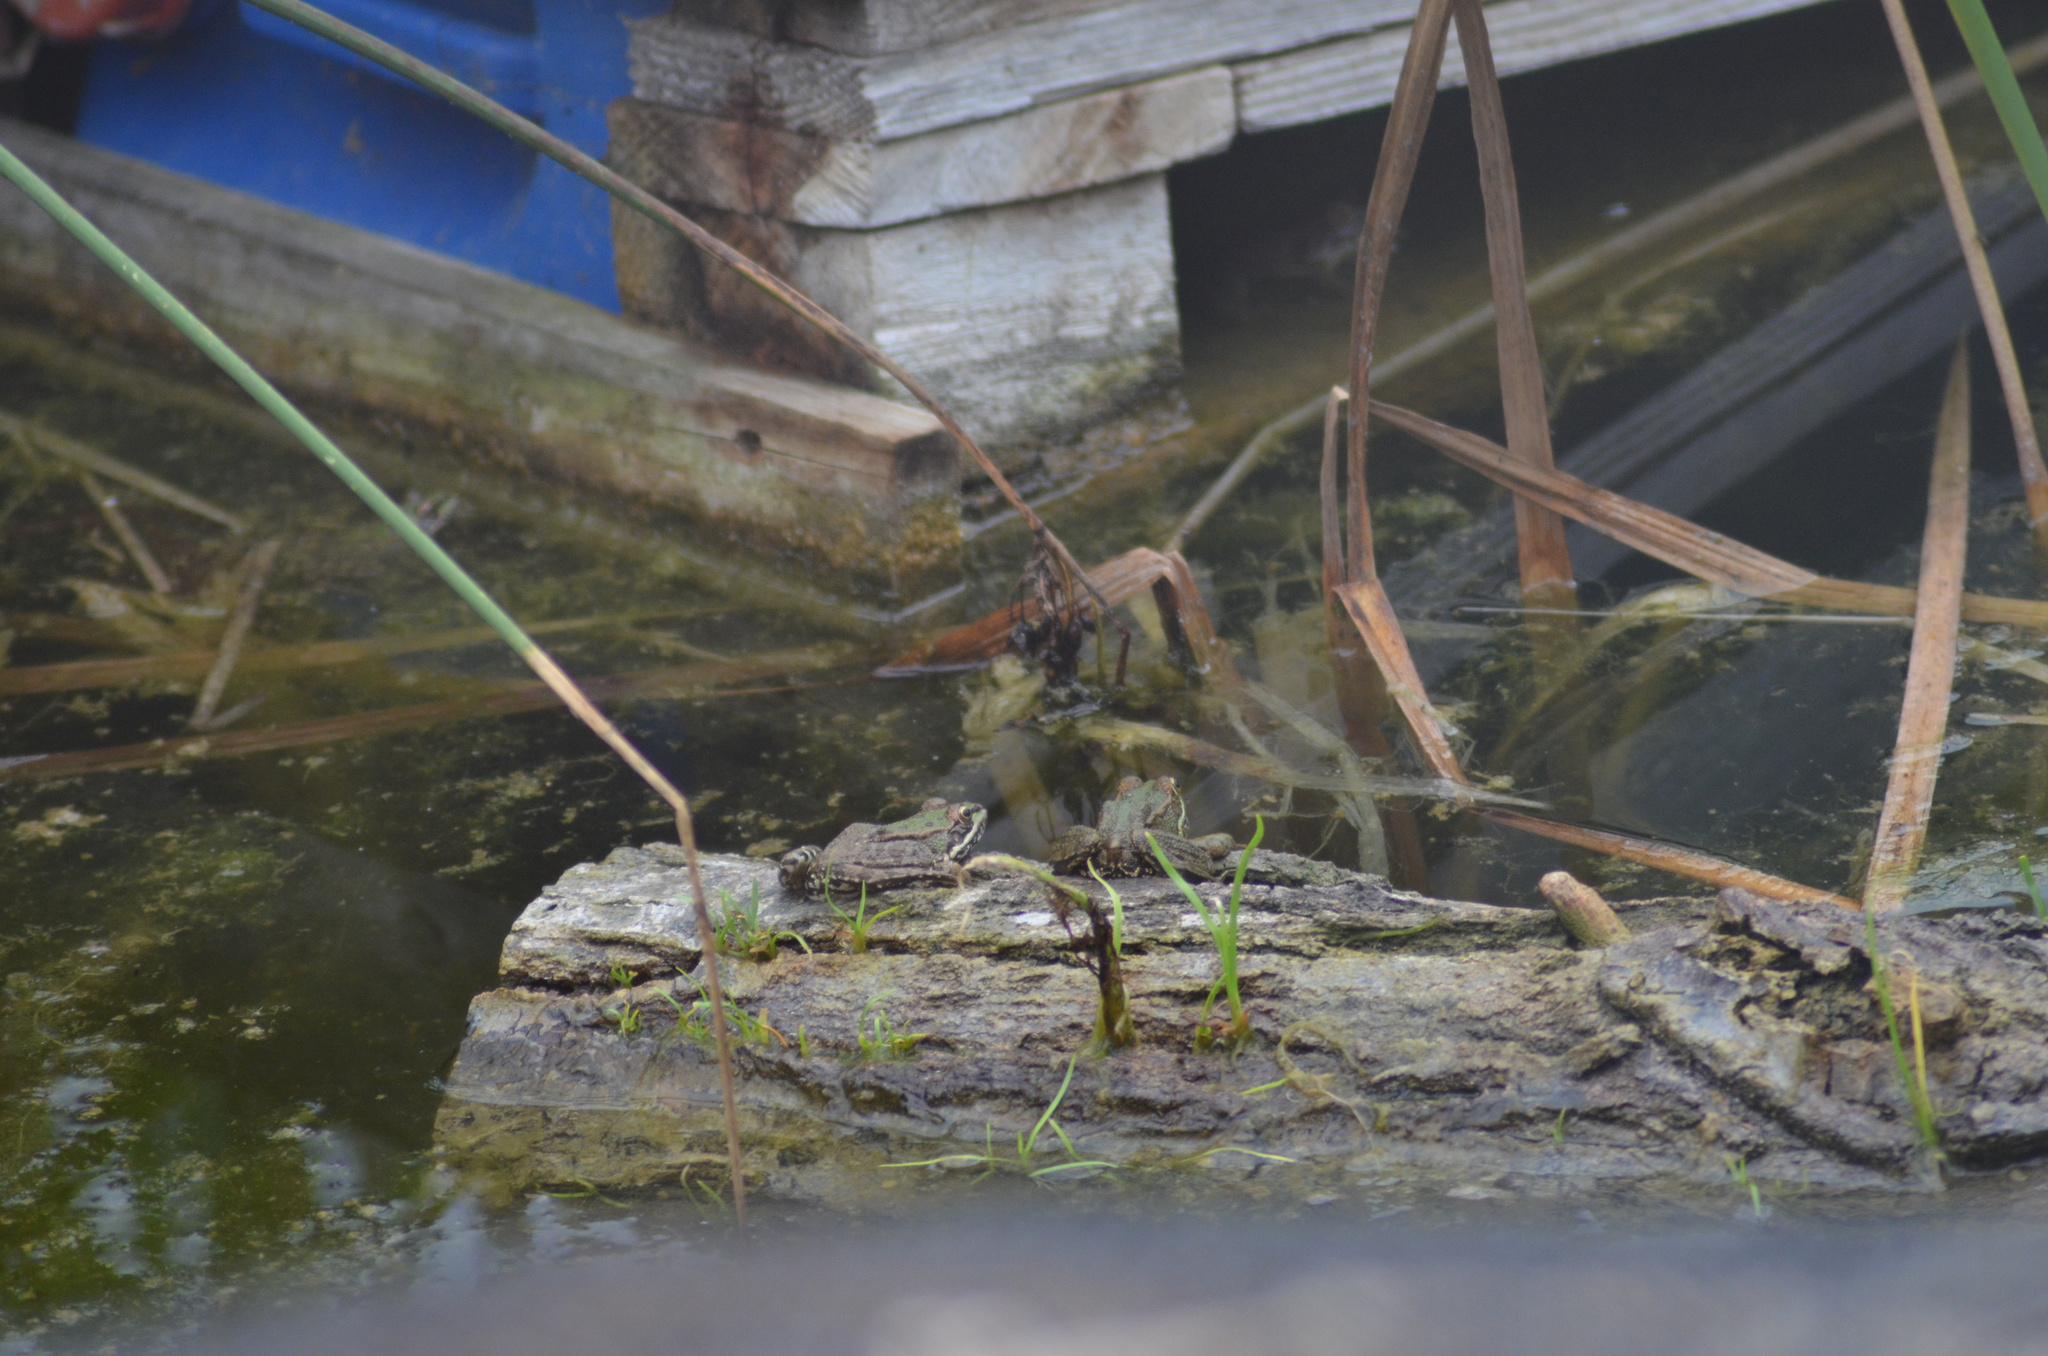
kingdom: Animalia
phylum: Chordata
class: Amphibia
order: Anura
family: Ranidae
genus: Pelophylax
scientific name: Pelophylax
